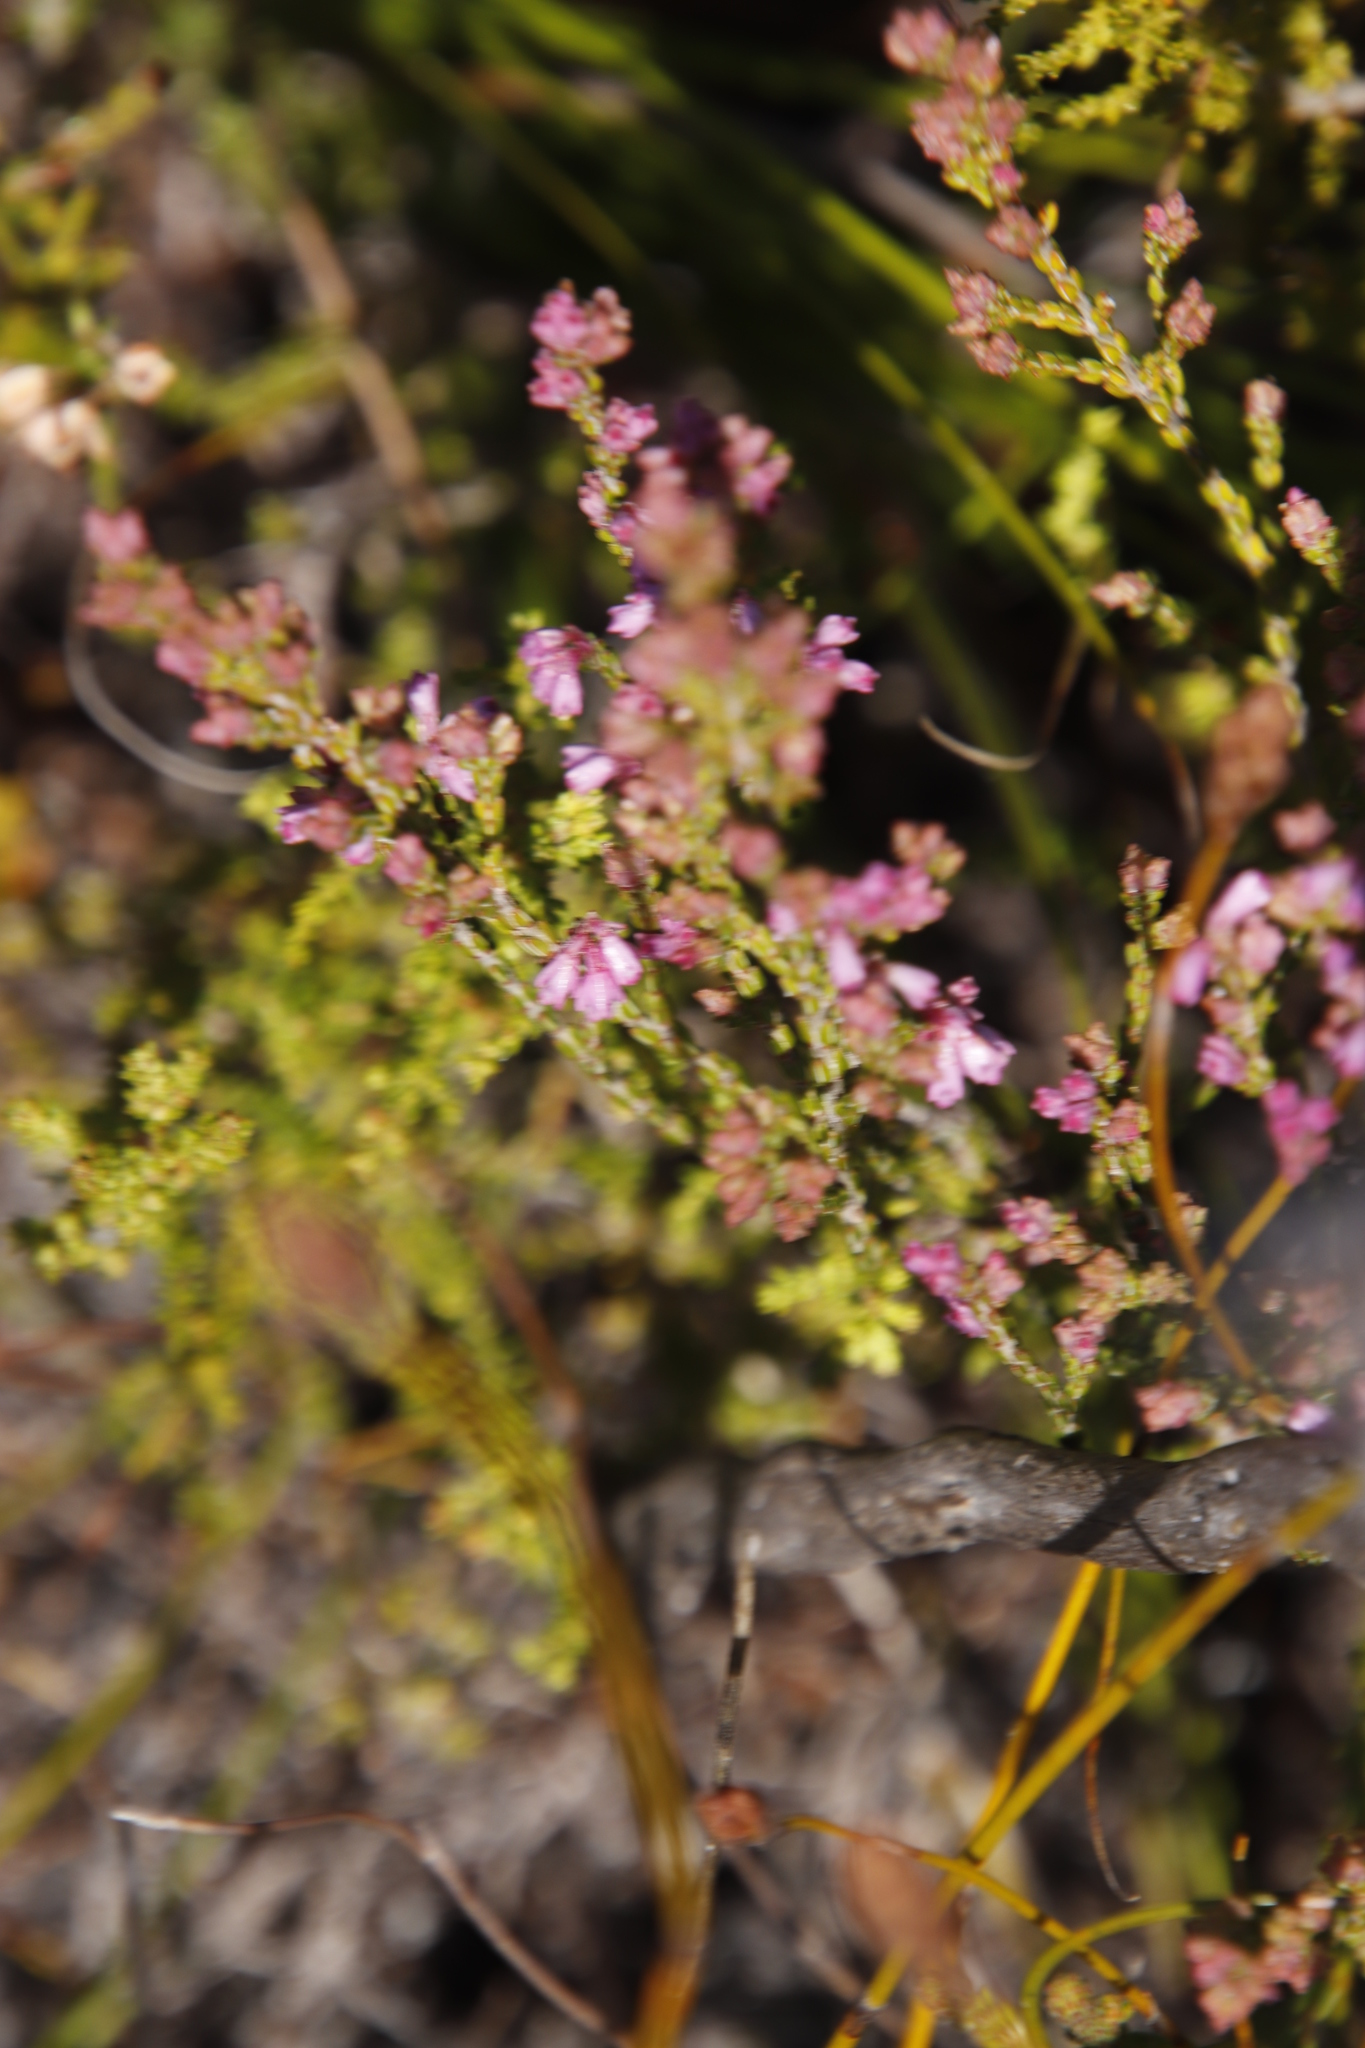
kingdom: Plantae
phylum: Tracheophyta
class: Magnoliopsida
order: Ericales
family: Ericaceae
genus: Erica
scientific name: Erica gnaphaloides
